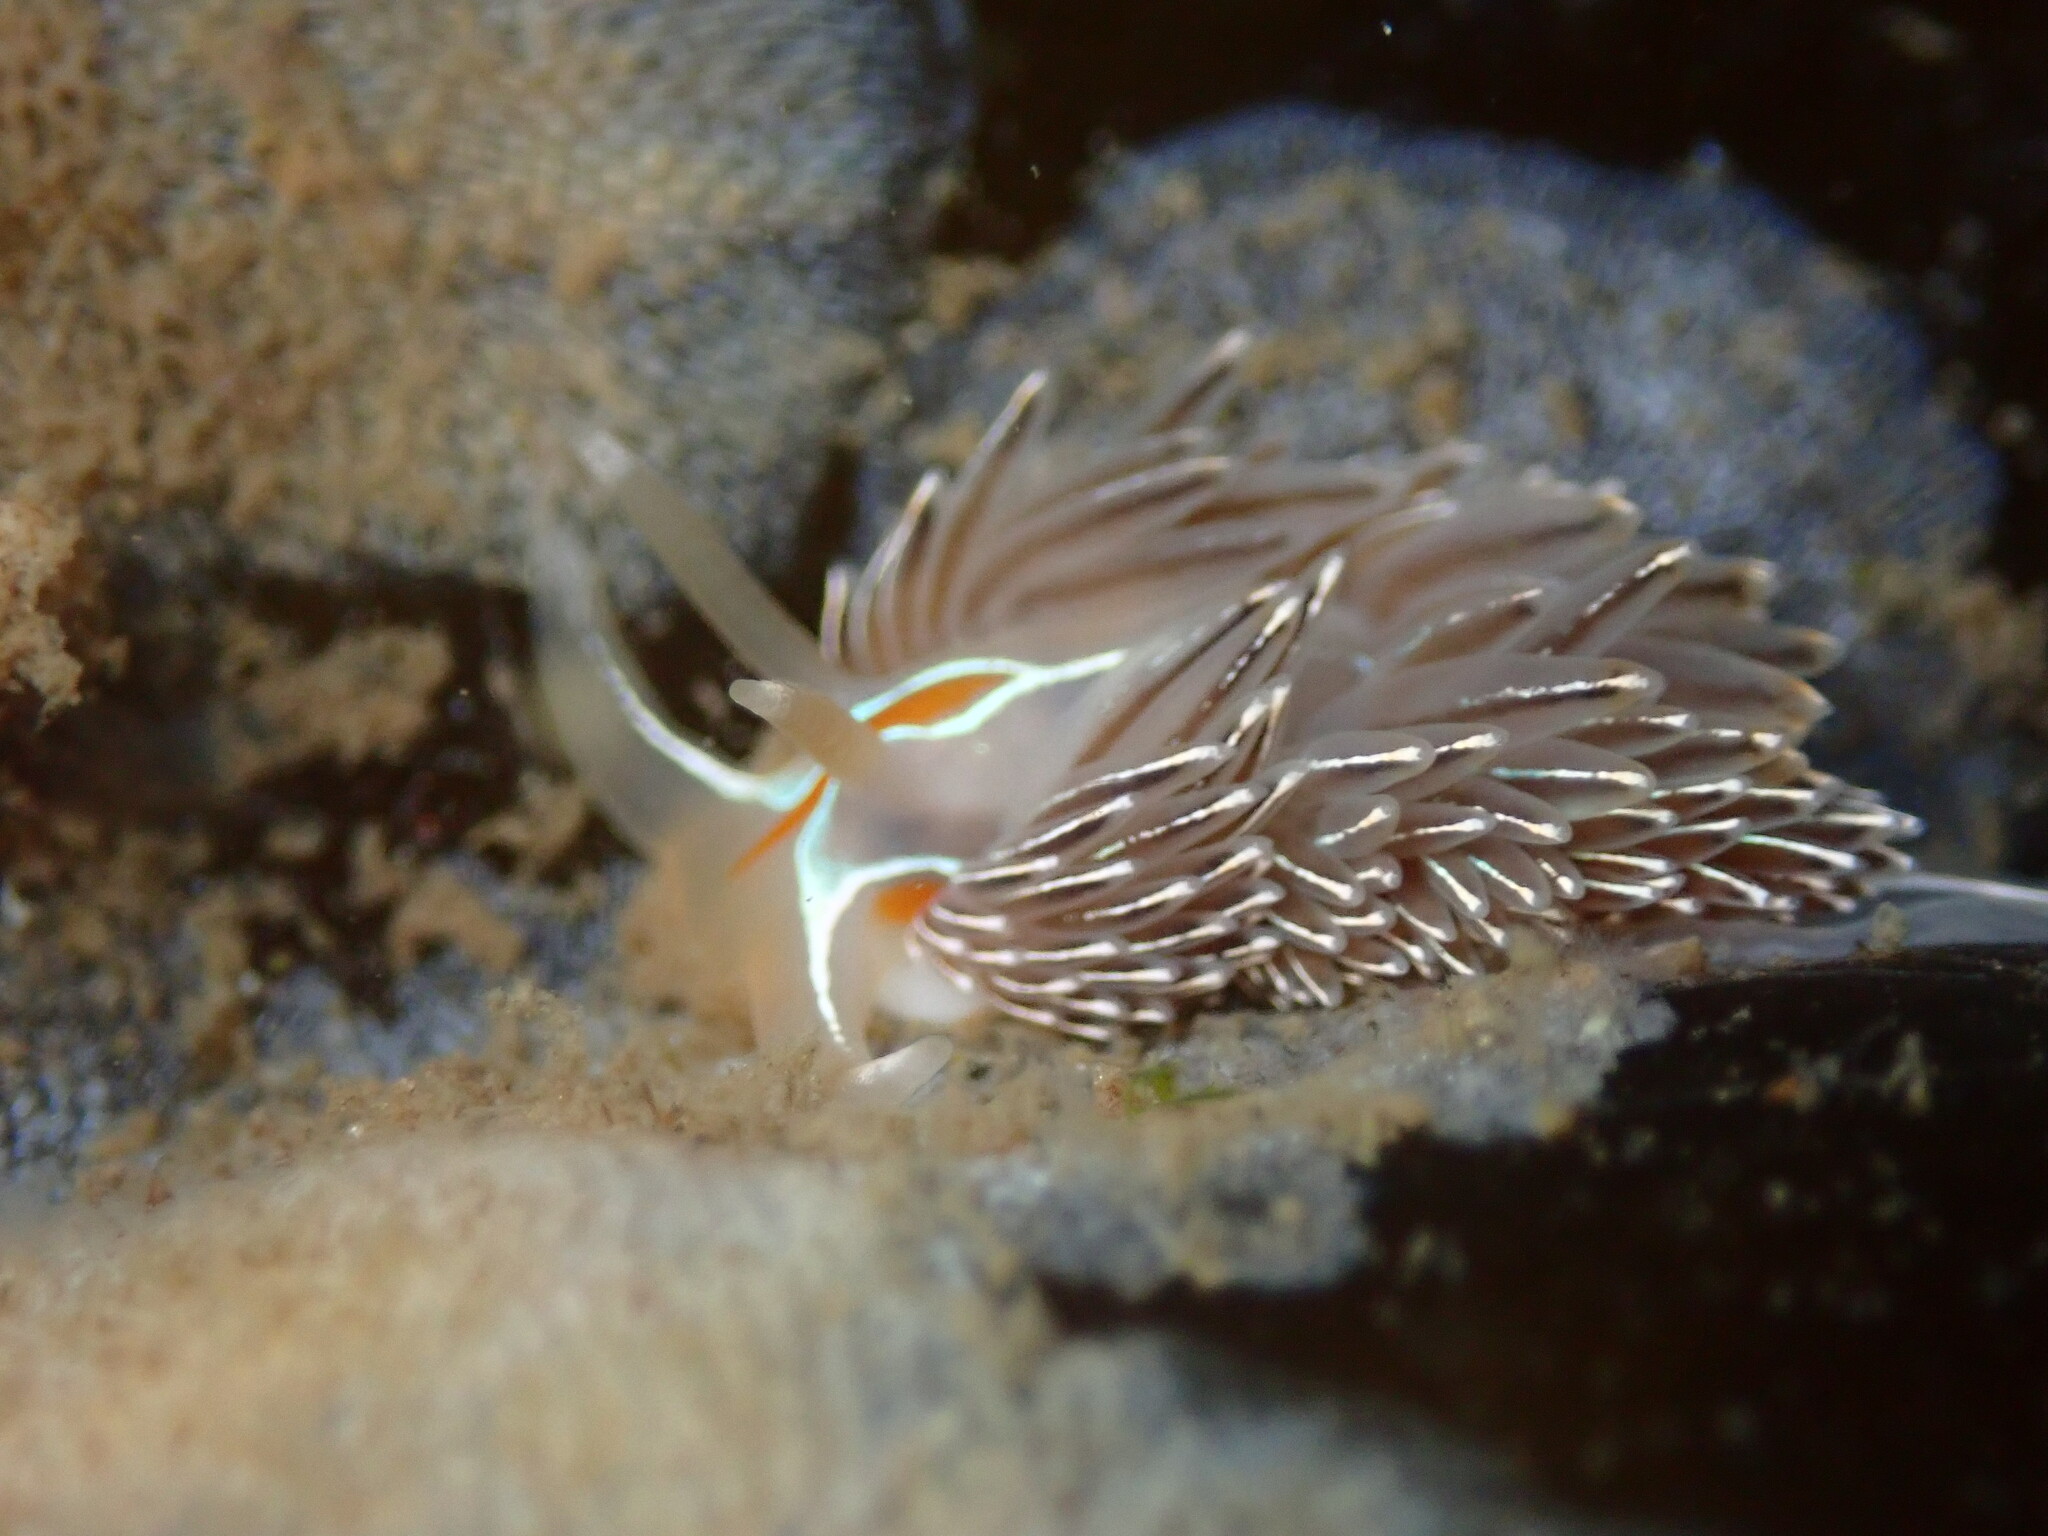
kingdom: Animalia
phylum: Mollusca
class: Gastropoda
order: Nudibranchia
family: Myrrhinidae
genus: Hermissenda
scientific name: Hermissenda crassicornis
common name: Hermissenda
